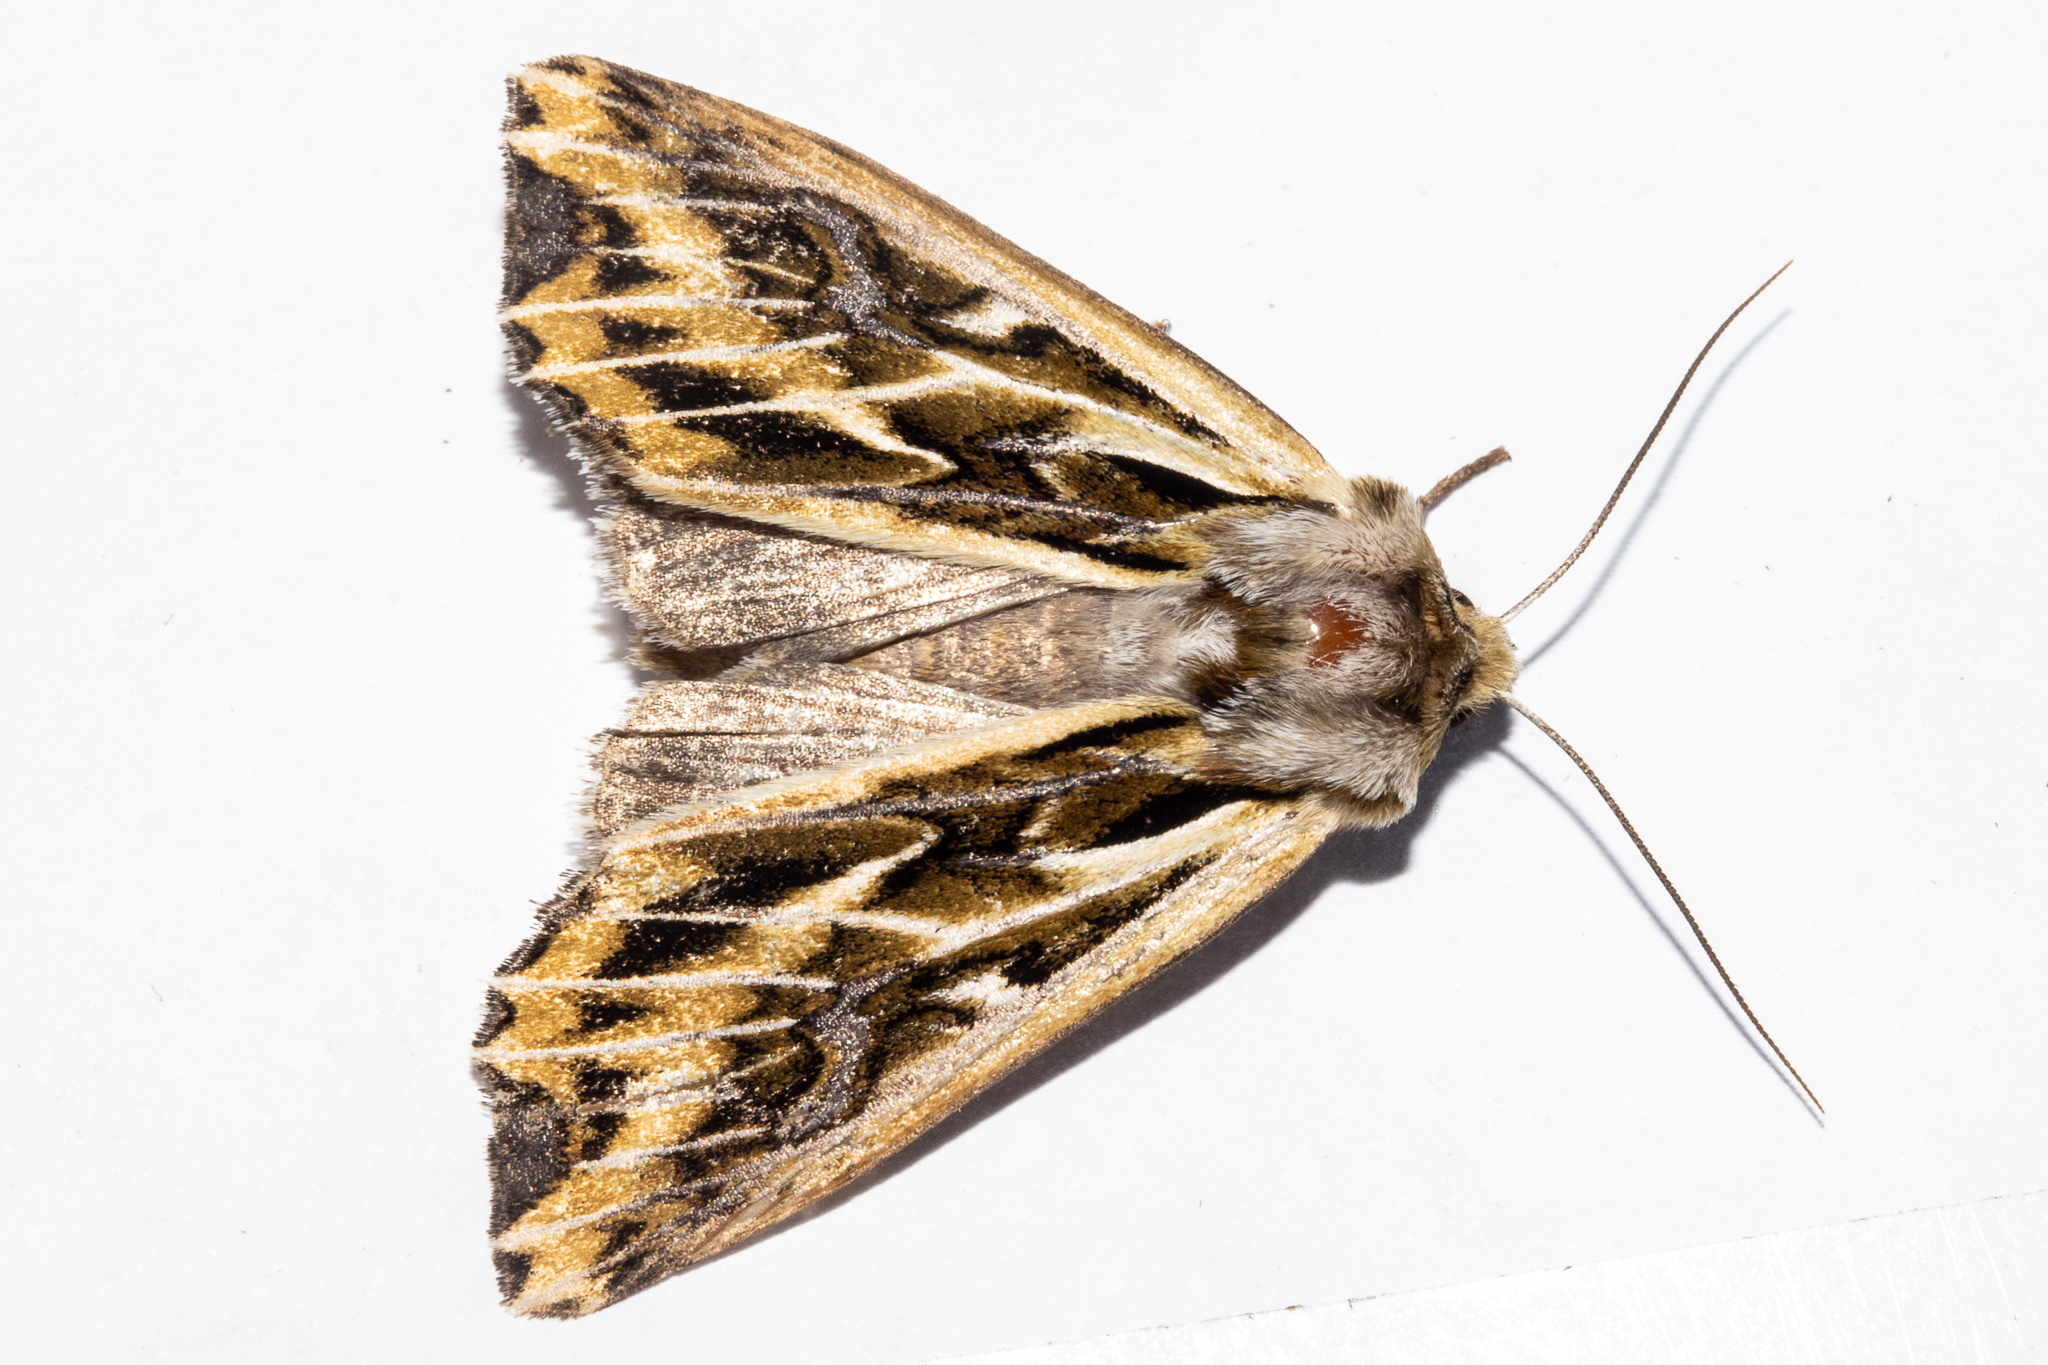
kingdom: Animalia
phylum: Arthropoda
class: Insecta
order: Lepidoptera
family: Noctuidae
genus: Ichneutica
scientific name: Ichneutica
